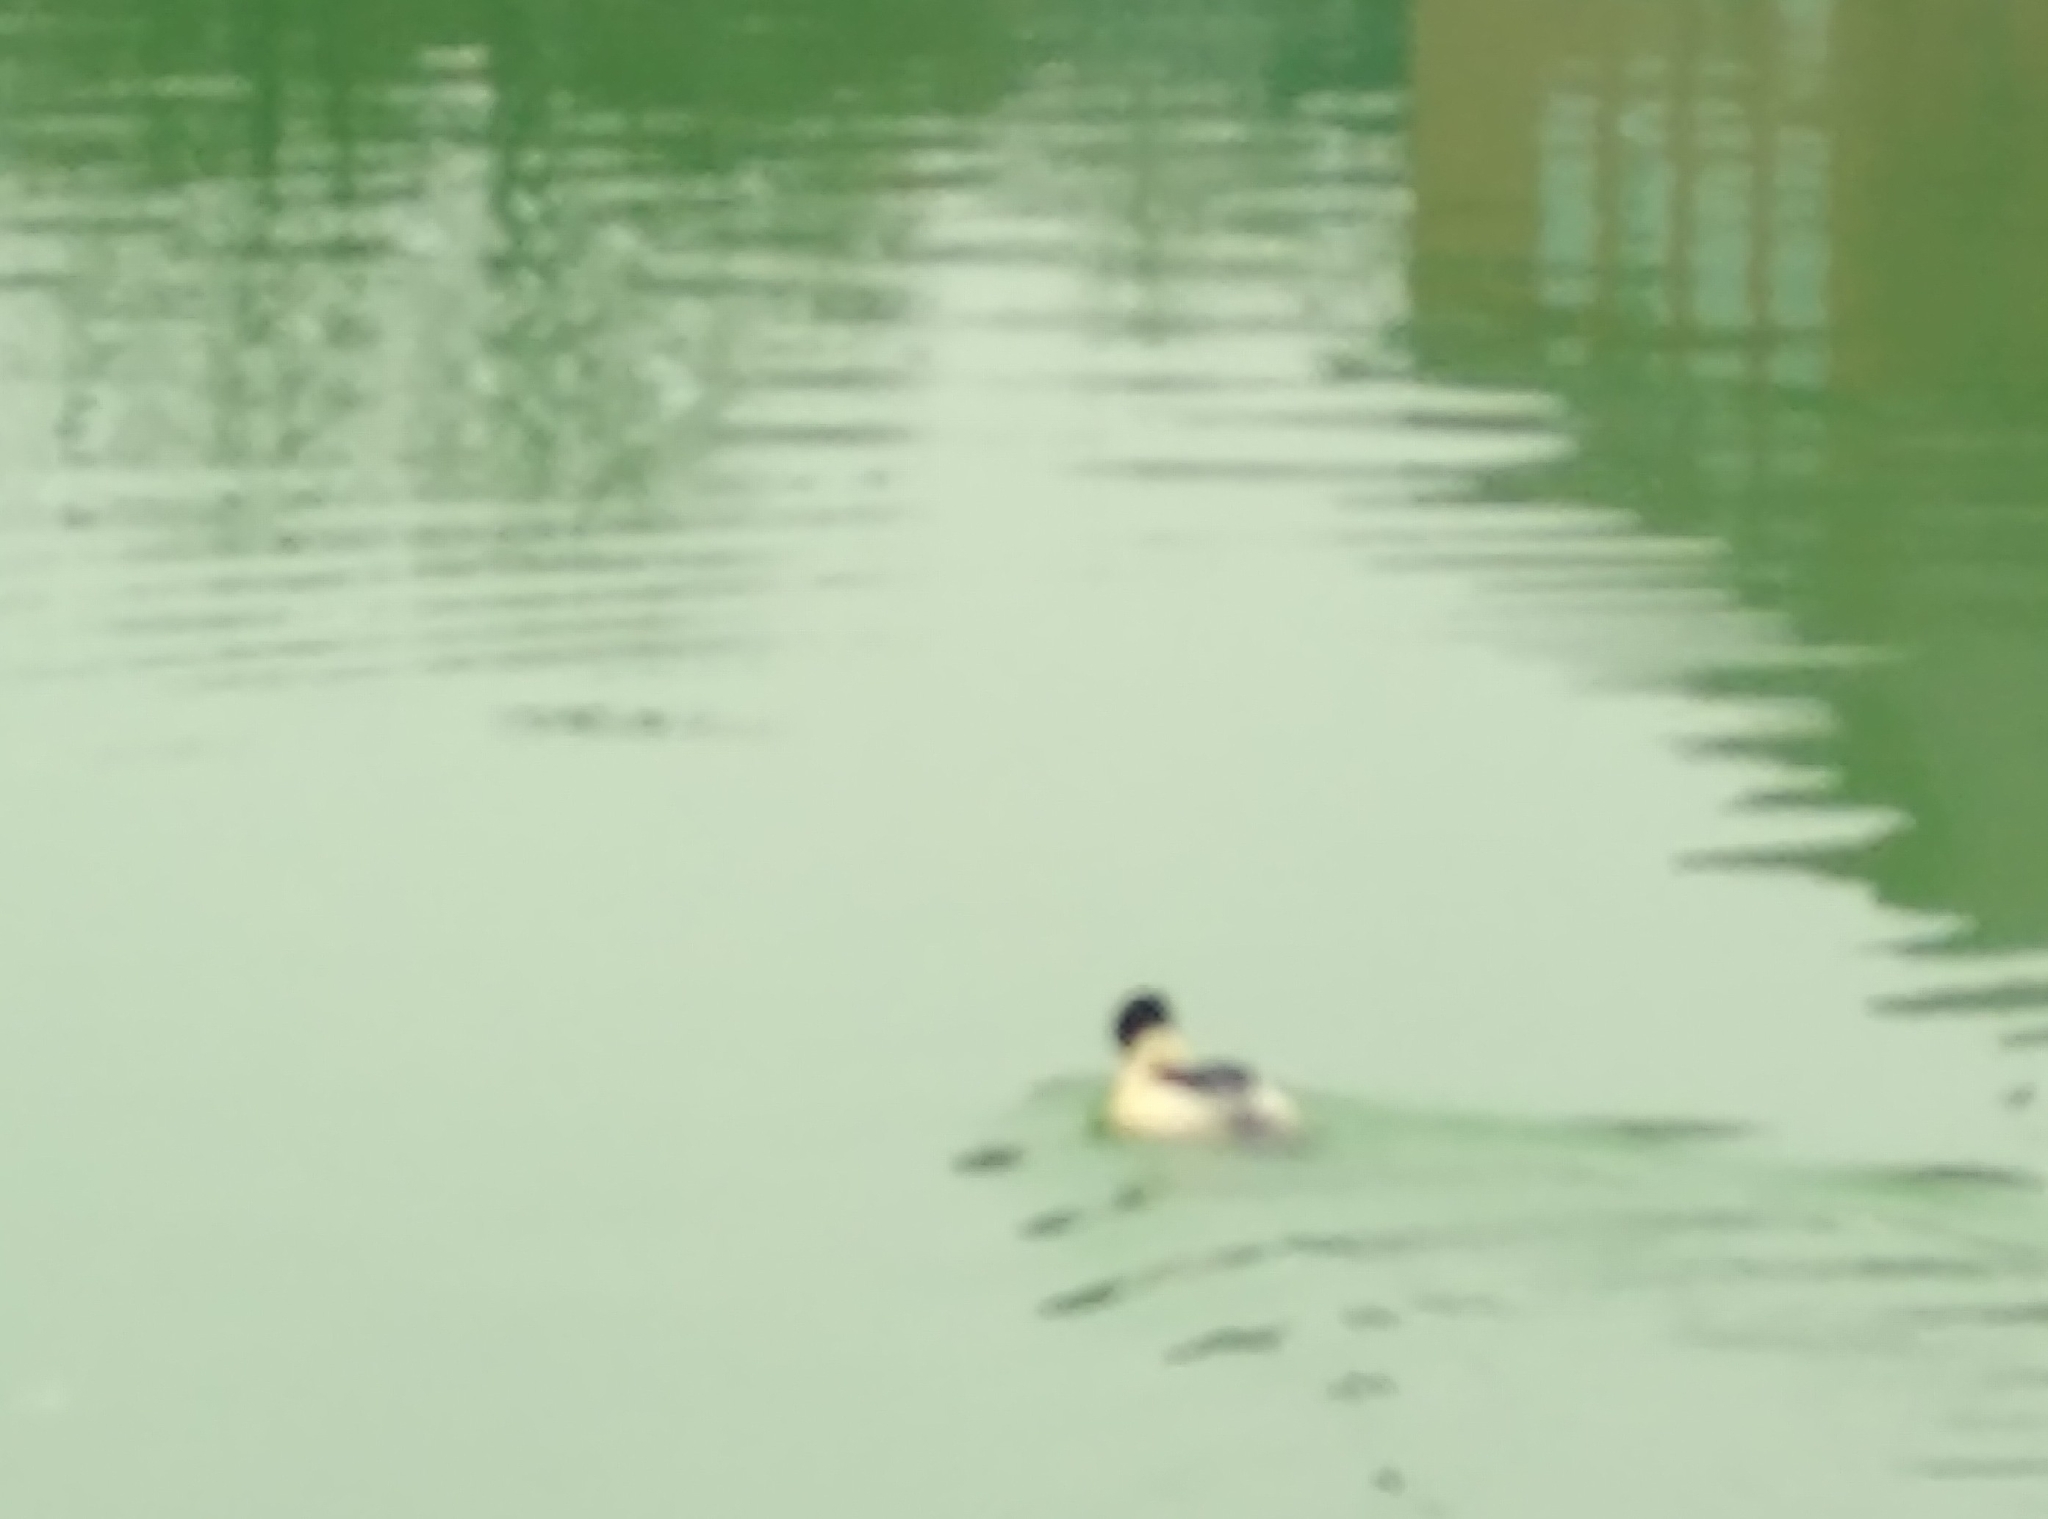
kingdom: Animalia
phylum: Chordata
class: Aves
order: Anseriformes
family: Anatidae
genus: Mergus
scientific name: Mergus merganser
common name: Common merganser
